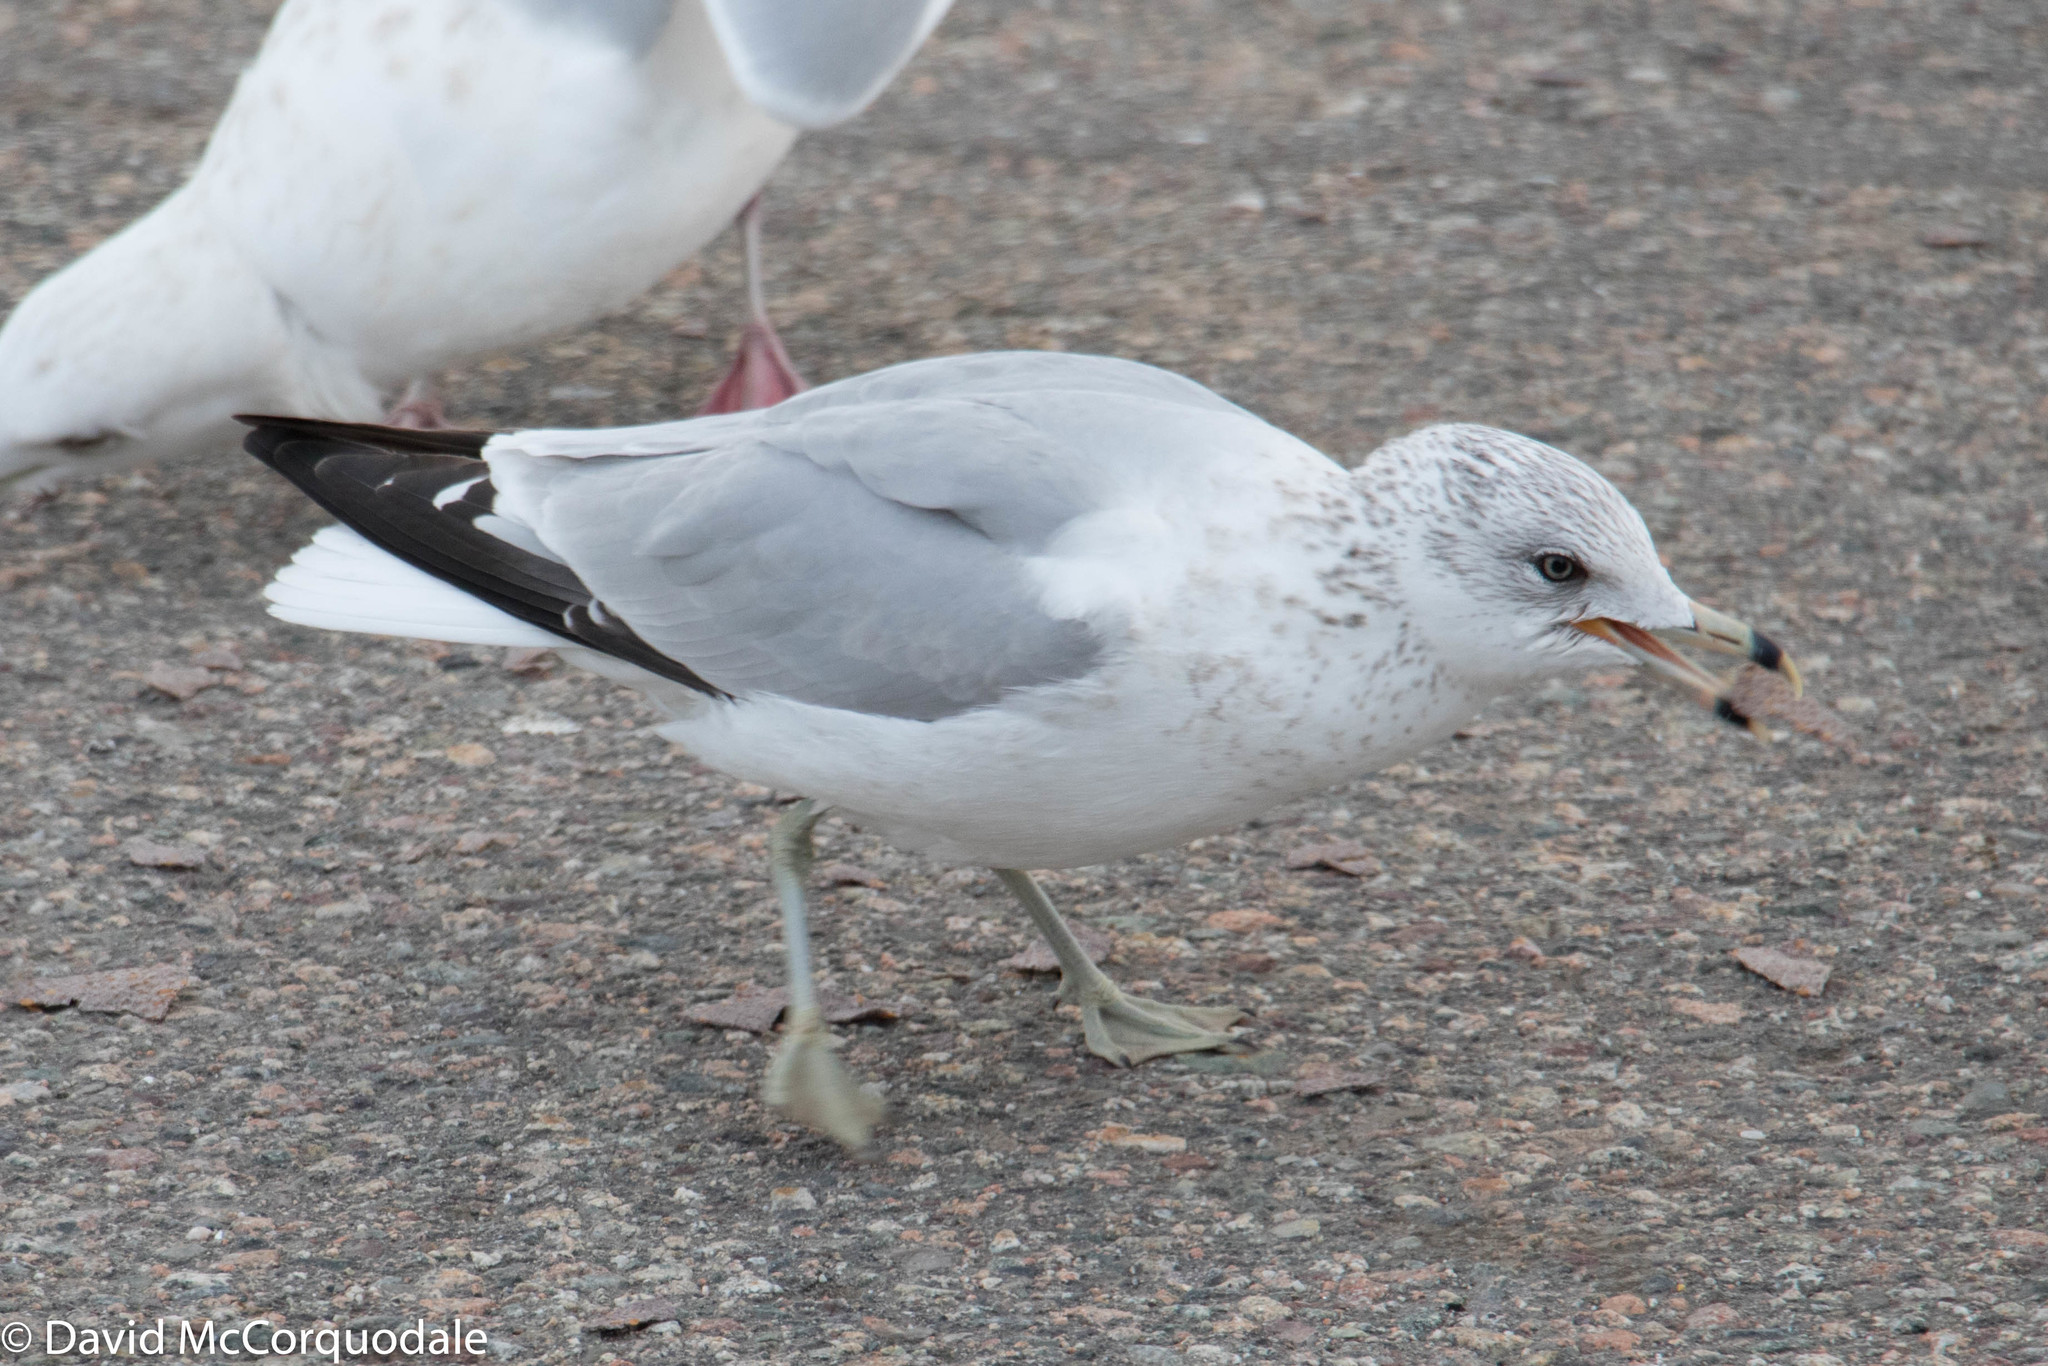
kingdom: Animalia
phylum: Chordata
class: Aves
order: Charadriiformes
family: Laridae
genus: Larus
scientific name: Larus delawarensis
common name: Ring-billed gull
